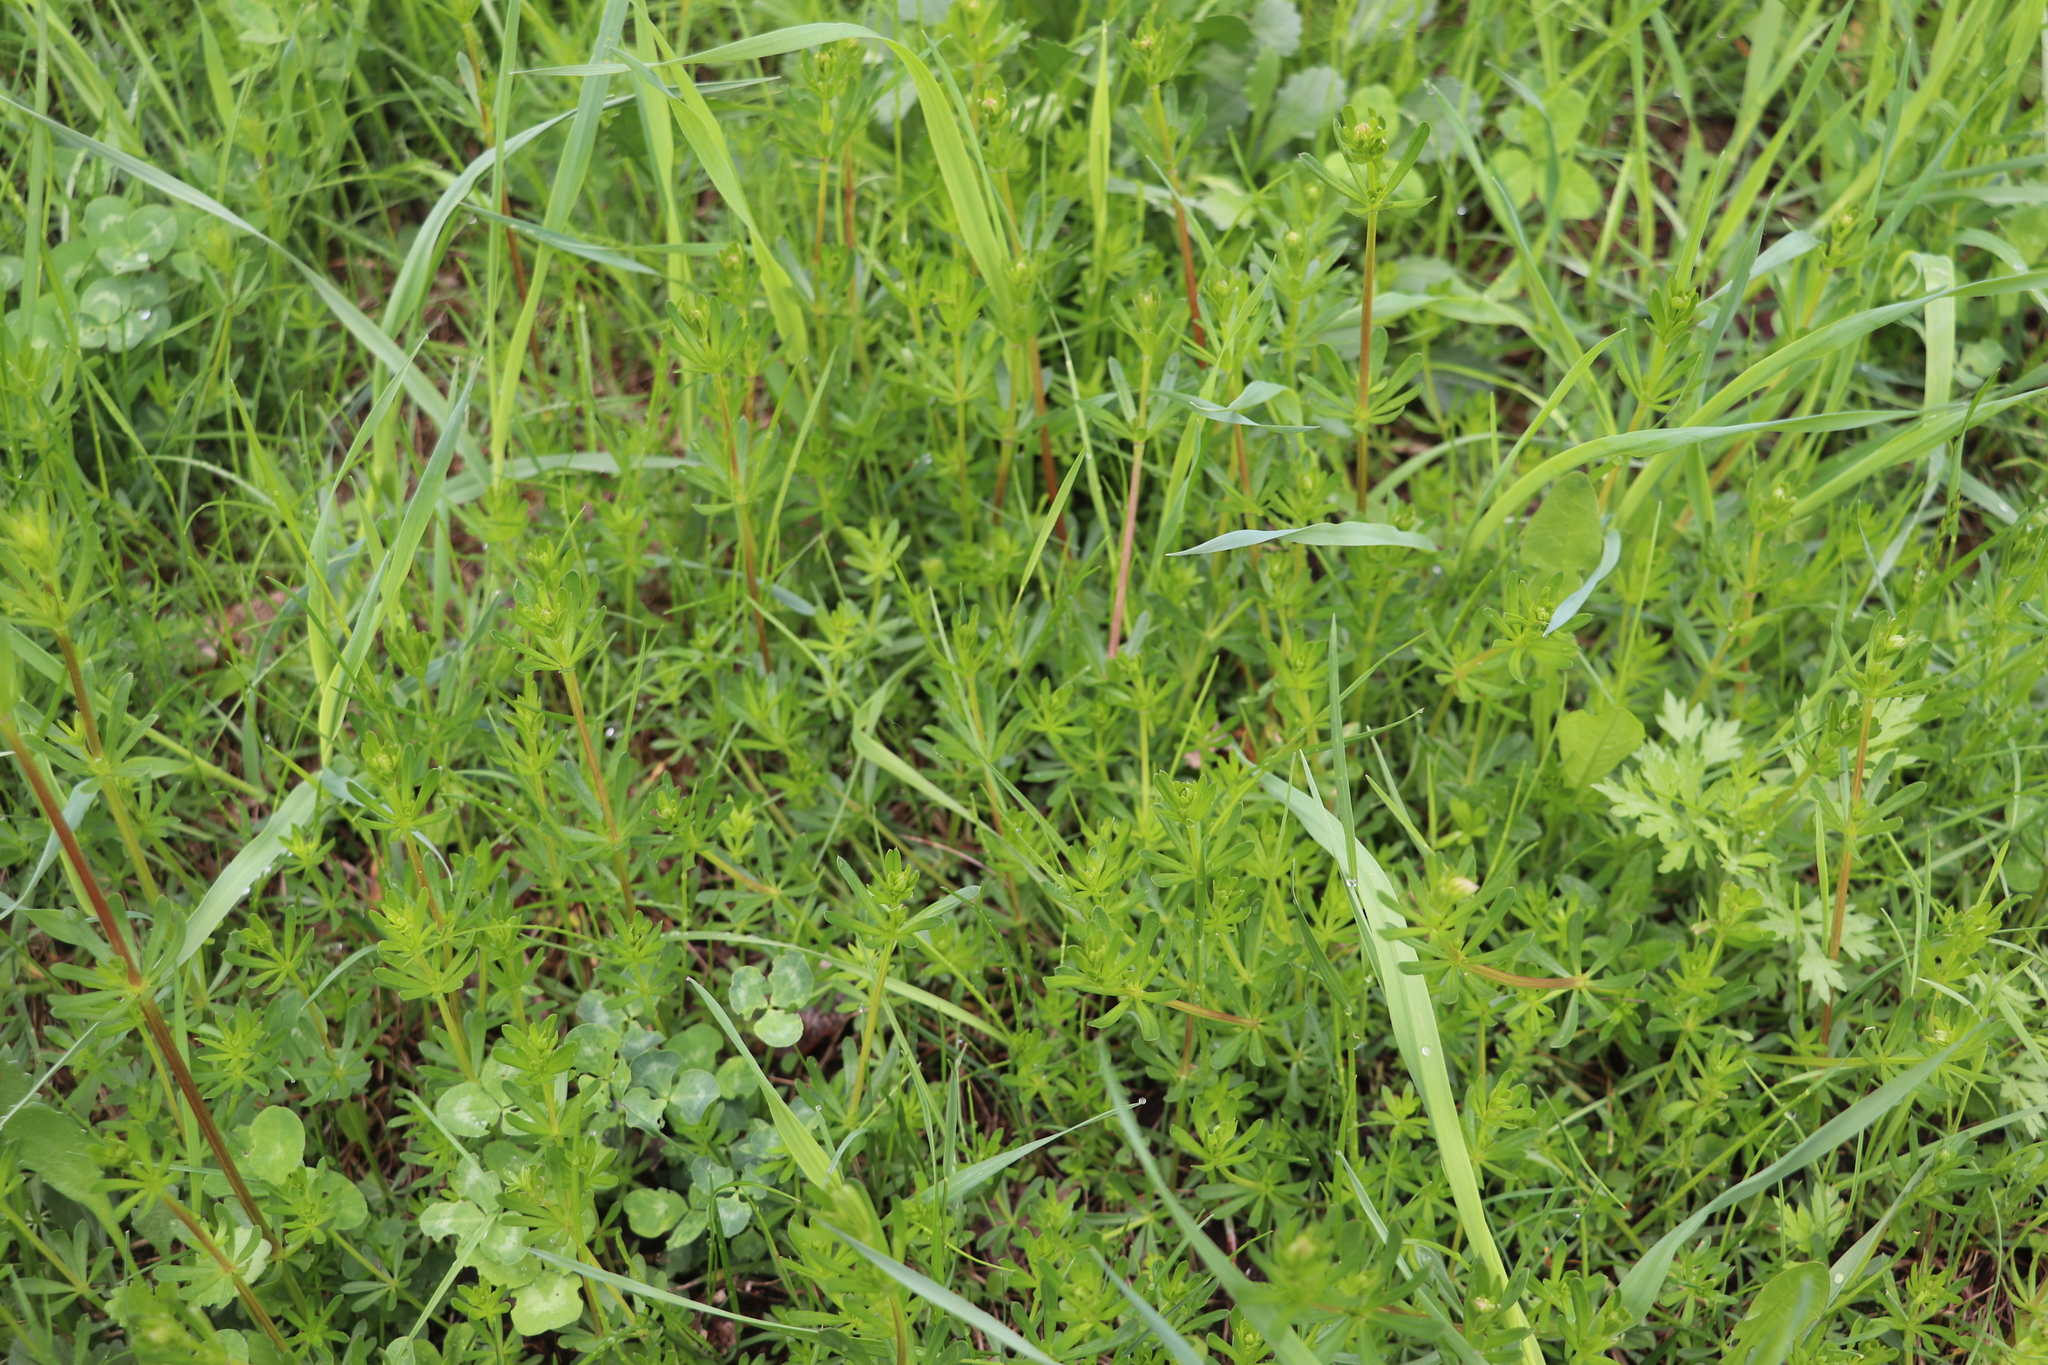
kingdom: Plantae
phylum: Tracheophyta
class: Magnoliopsida
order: Gentianales
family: Rubiaceae
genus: Galium
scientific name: Galium mollugo
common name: Hedge bedstraw
